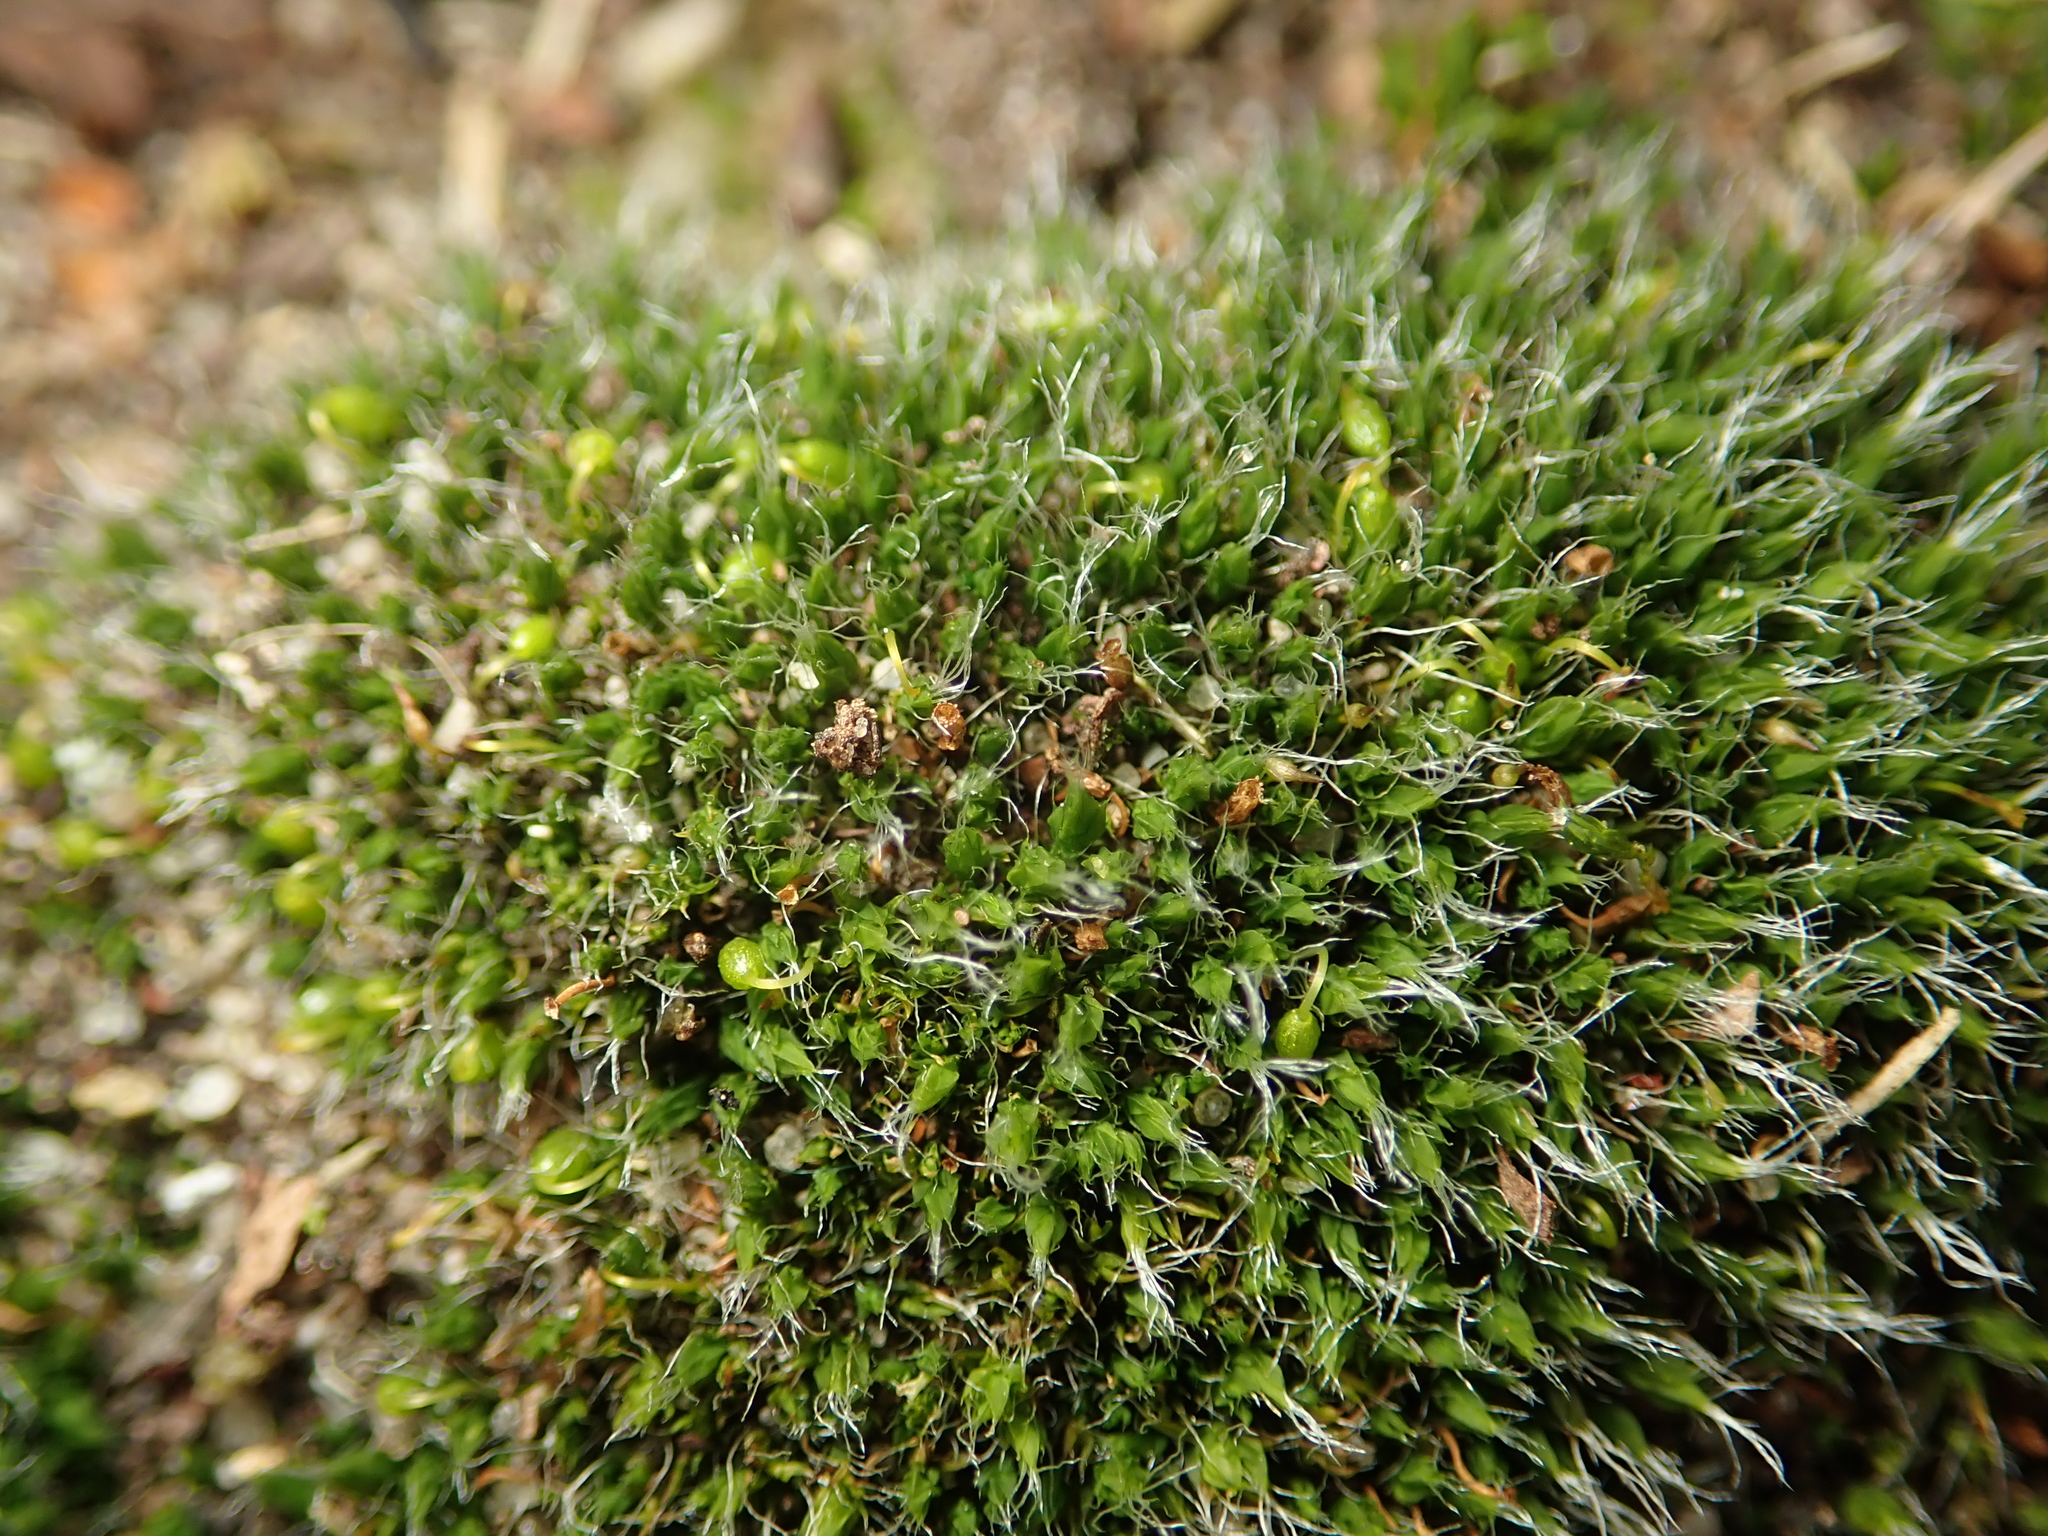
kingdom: Plantae
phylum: Bryophyta
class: Bryopsida
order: Grimmiales
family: Grimmiaceae
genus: Grimmia
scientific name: Grimmia pulvinata
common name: Grey-cushioned grimmia
